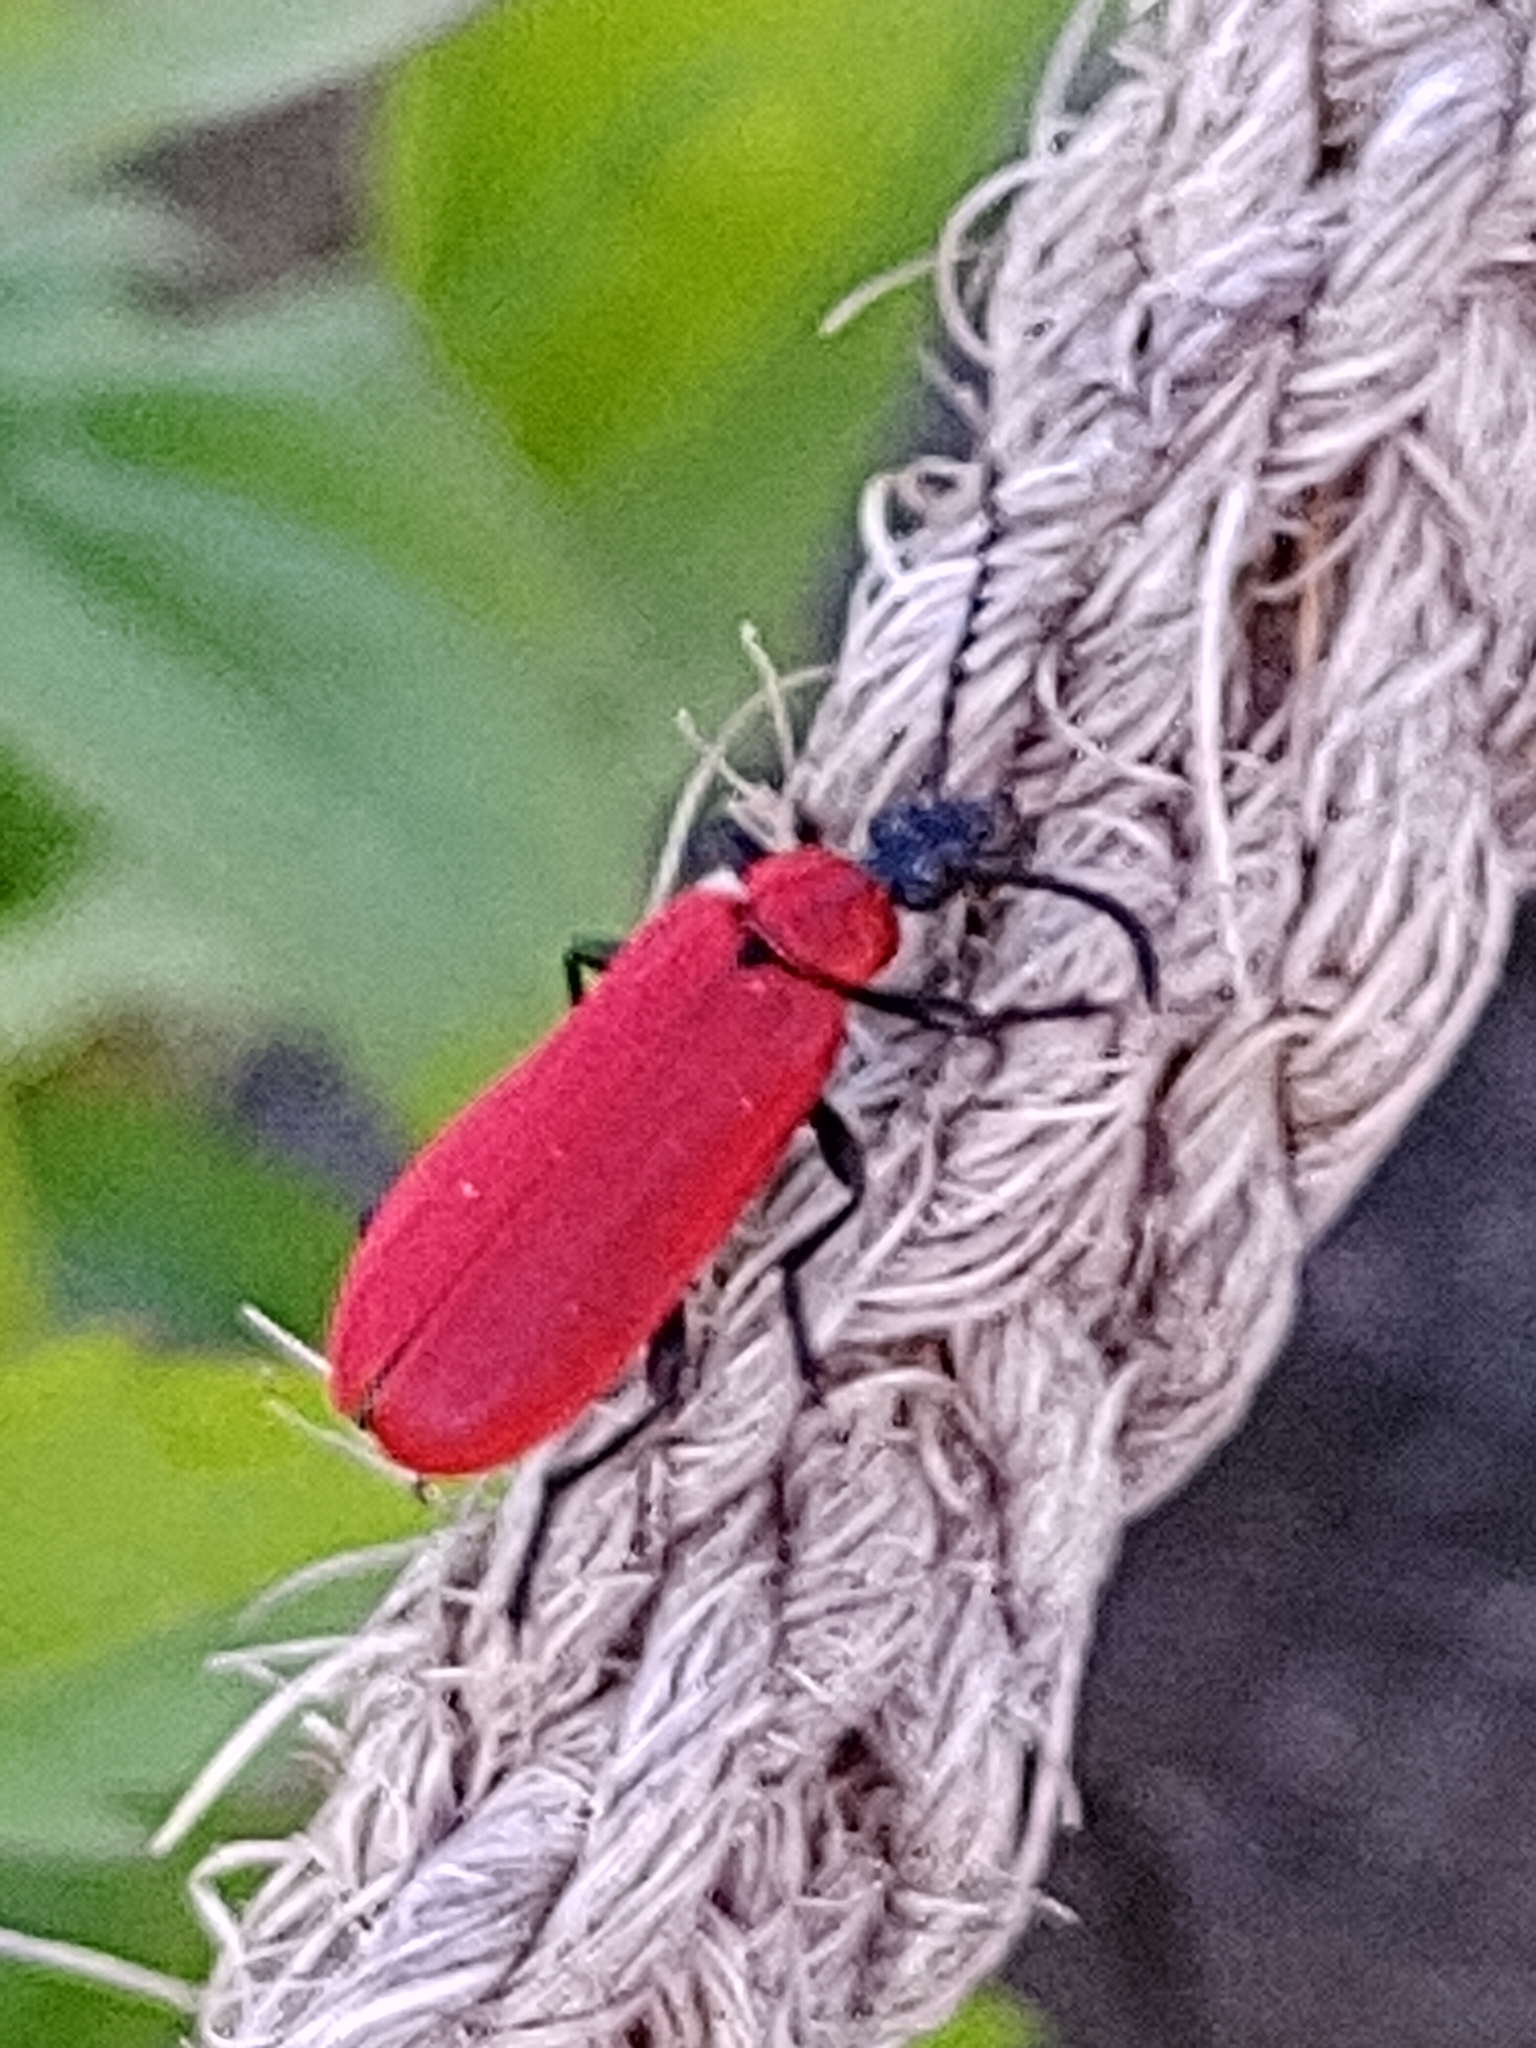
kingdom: Animalia
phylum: Arthropoda
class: Insecta
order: Coleoptera
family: Pyrochroidae
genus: Pyrochroa
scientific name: Pyrochroa coccinea
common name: Black-headed cardinal beetle
